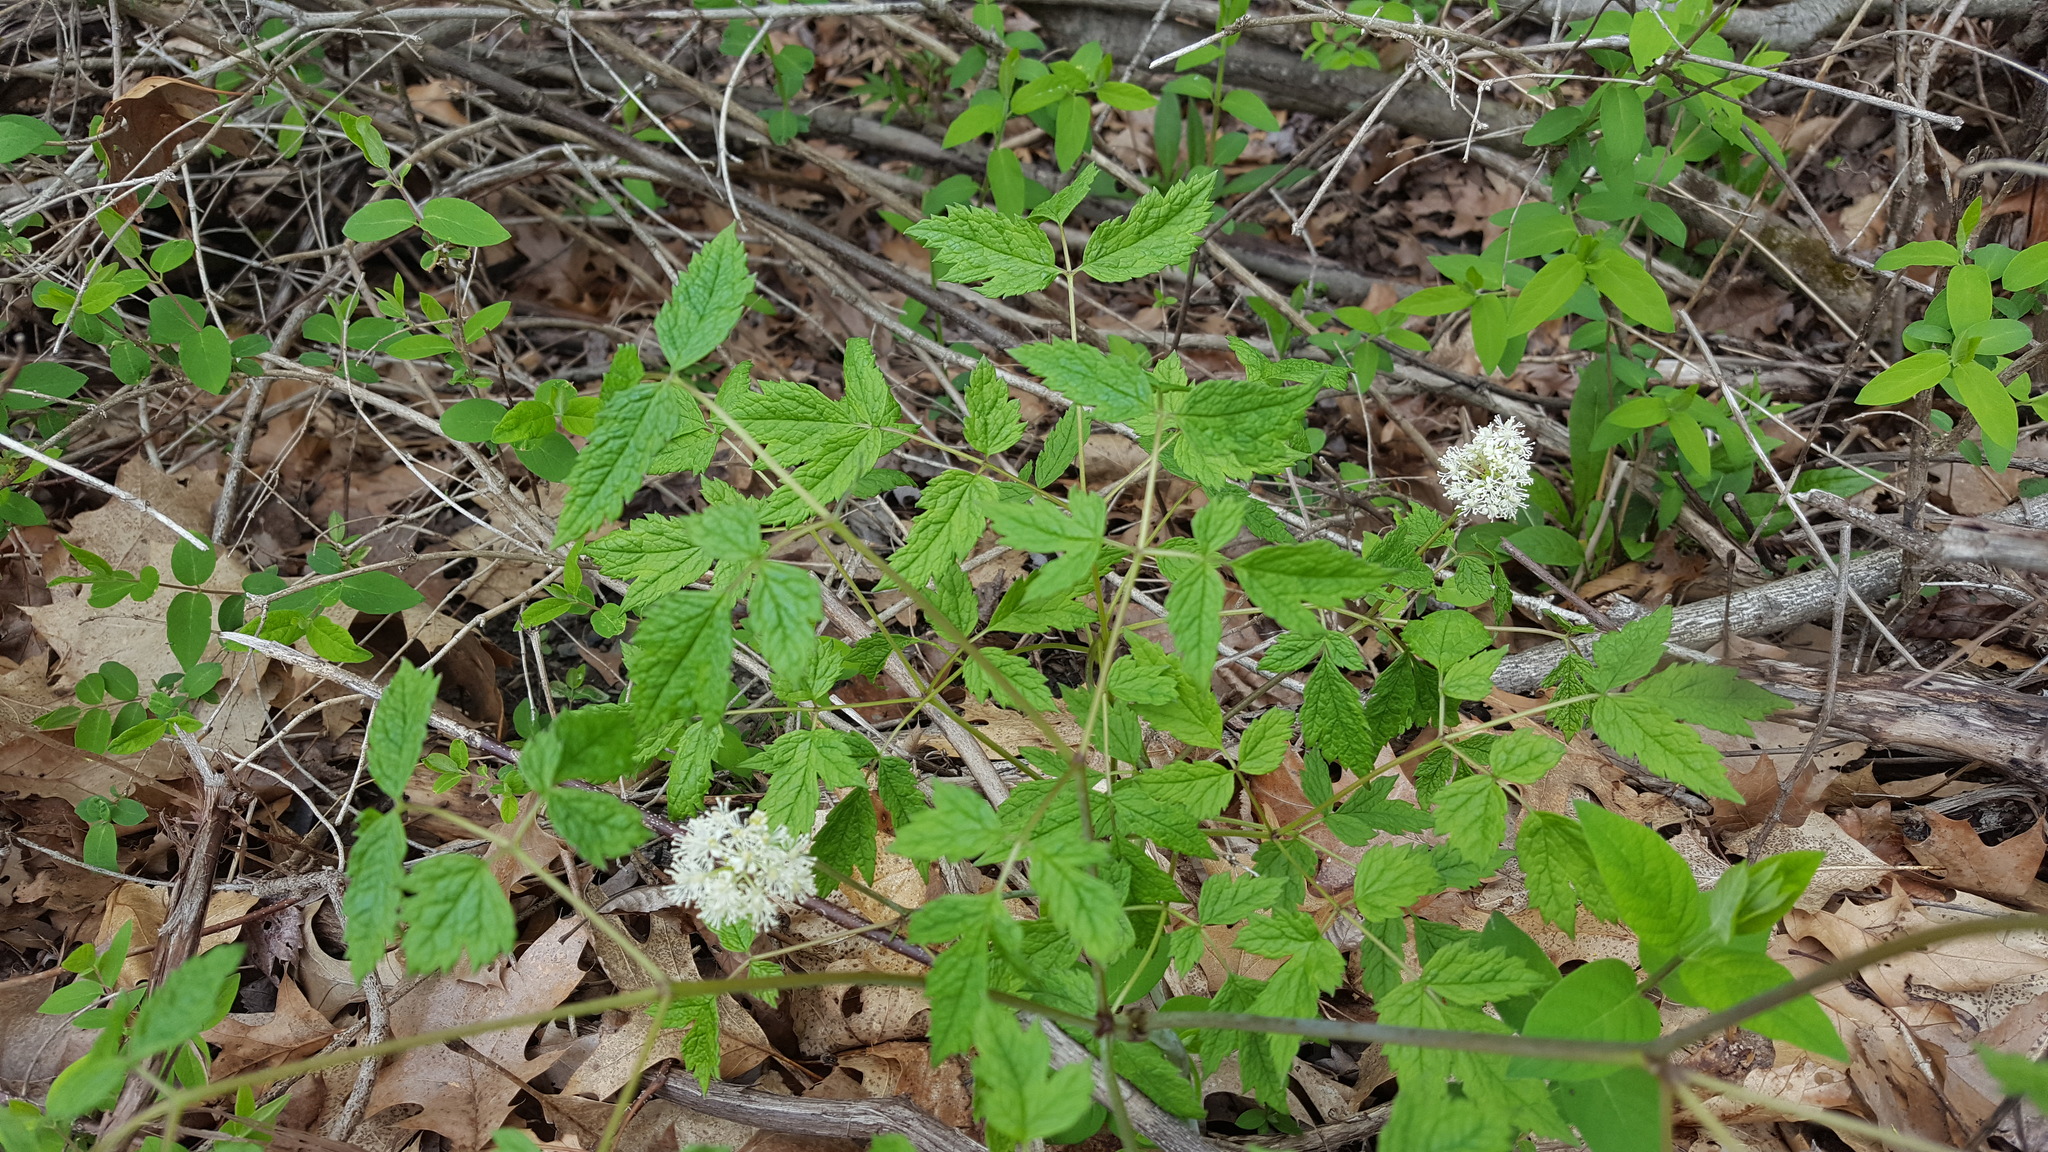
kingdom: Plantae
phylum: Tracheophyta
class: Magnoliopsida
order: Ranunculales
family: Ranunculaceae
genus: Actaea
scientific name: Actaea rubra
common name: Red baneberry
